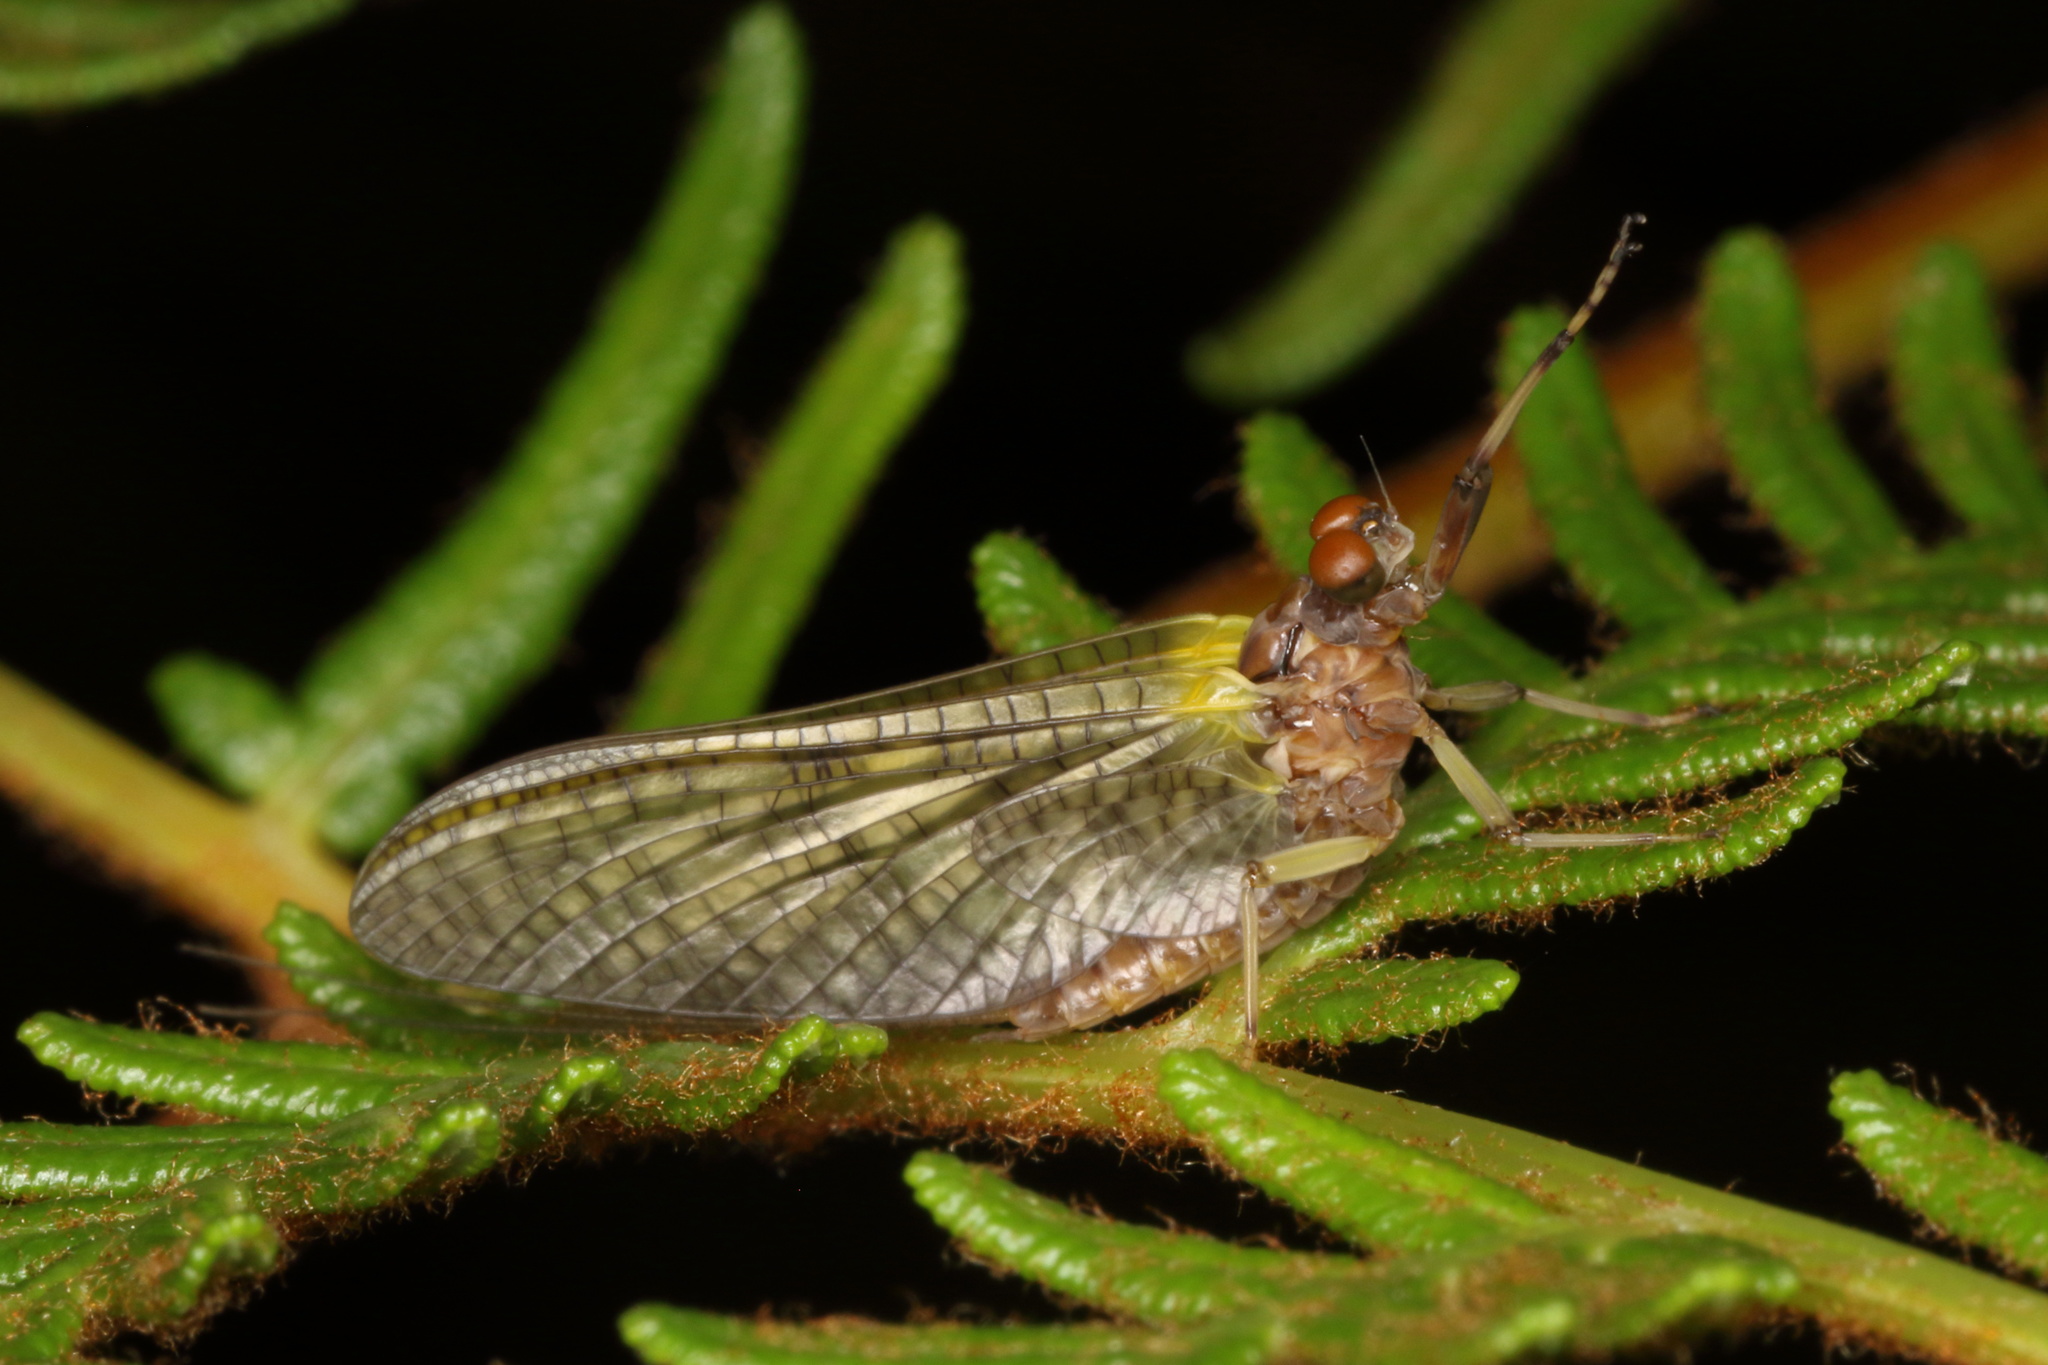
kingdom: Animalia
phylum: Arthropoda
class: Insecta
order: Ephemeroptera
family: Coloburiscidae
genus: Coloburiscus
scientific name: Coloburiscus humeralis
